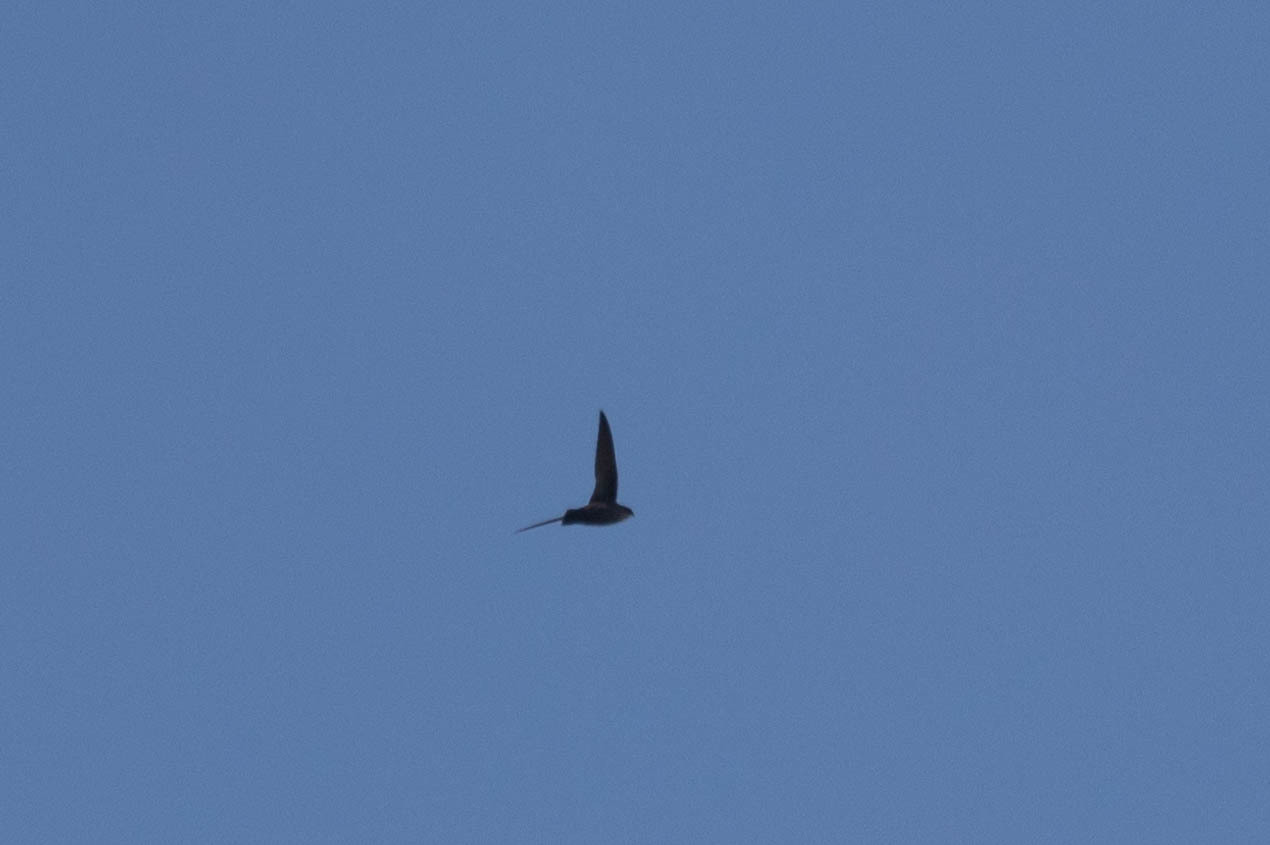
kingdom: Animalia
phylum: Chordata
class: Aves
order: Apodiformes
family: Apodidae
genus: Chaetura
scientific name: Chaetura pelagica
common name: Chimney swift
